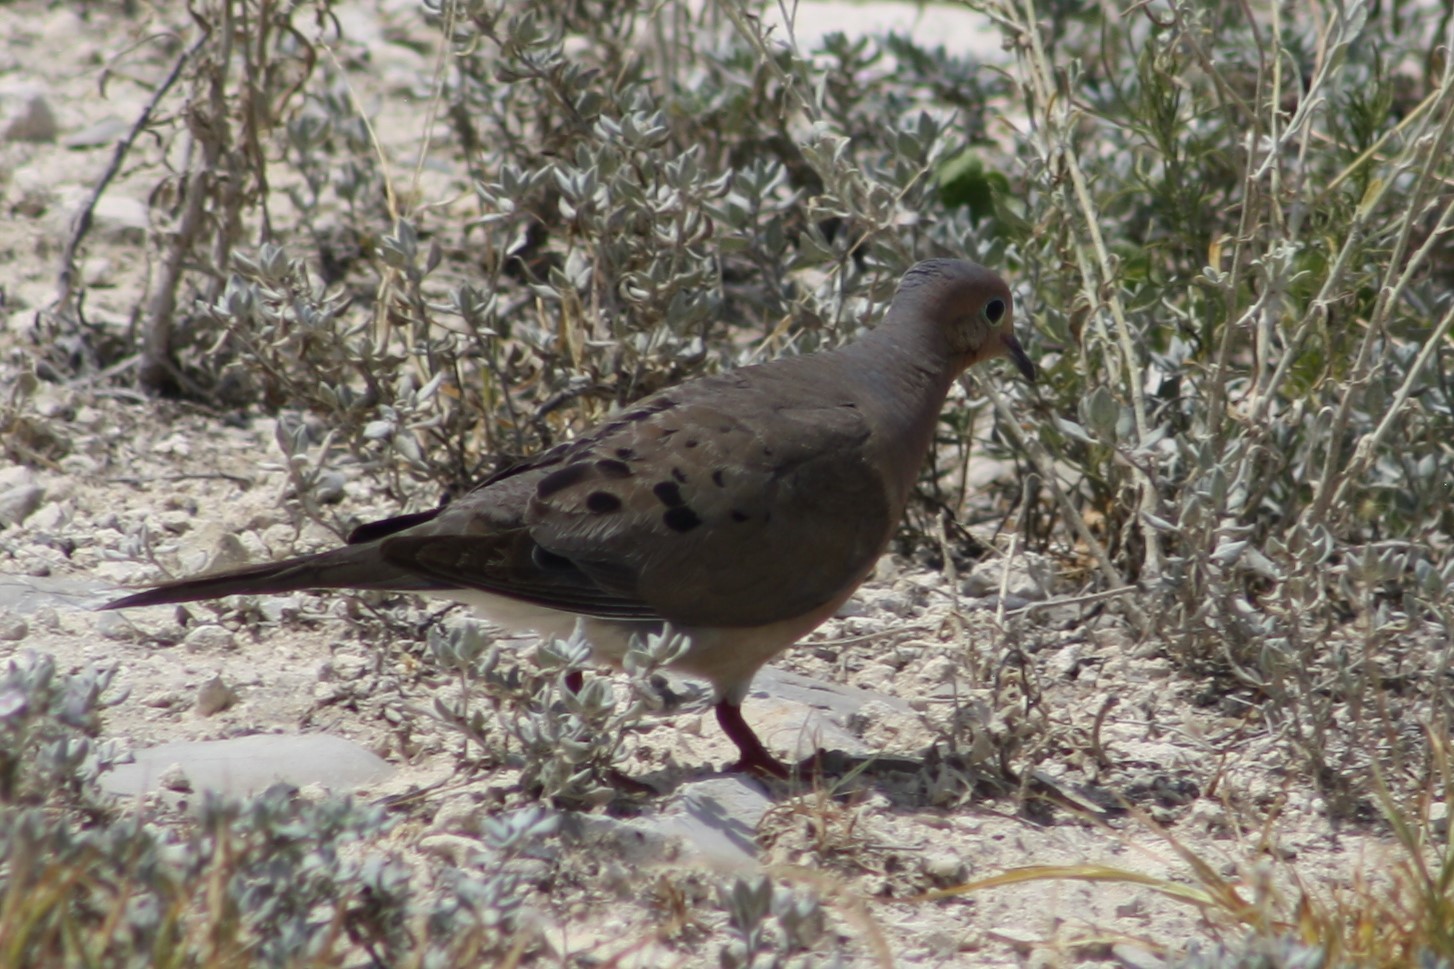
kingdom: Animalia
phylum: Chordata
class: Aves
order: Columbiformes
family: Columbidae
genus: Zenaida
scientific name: Zenaida macroura
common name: Mourning dove
